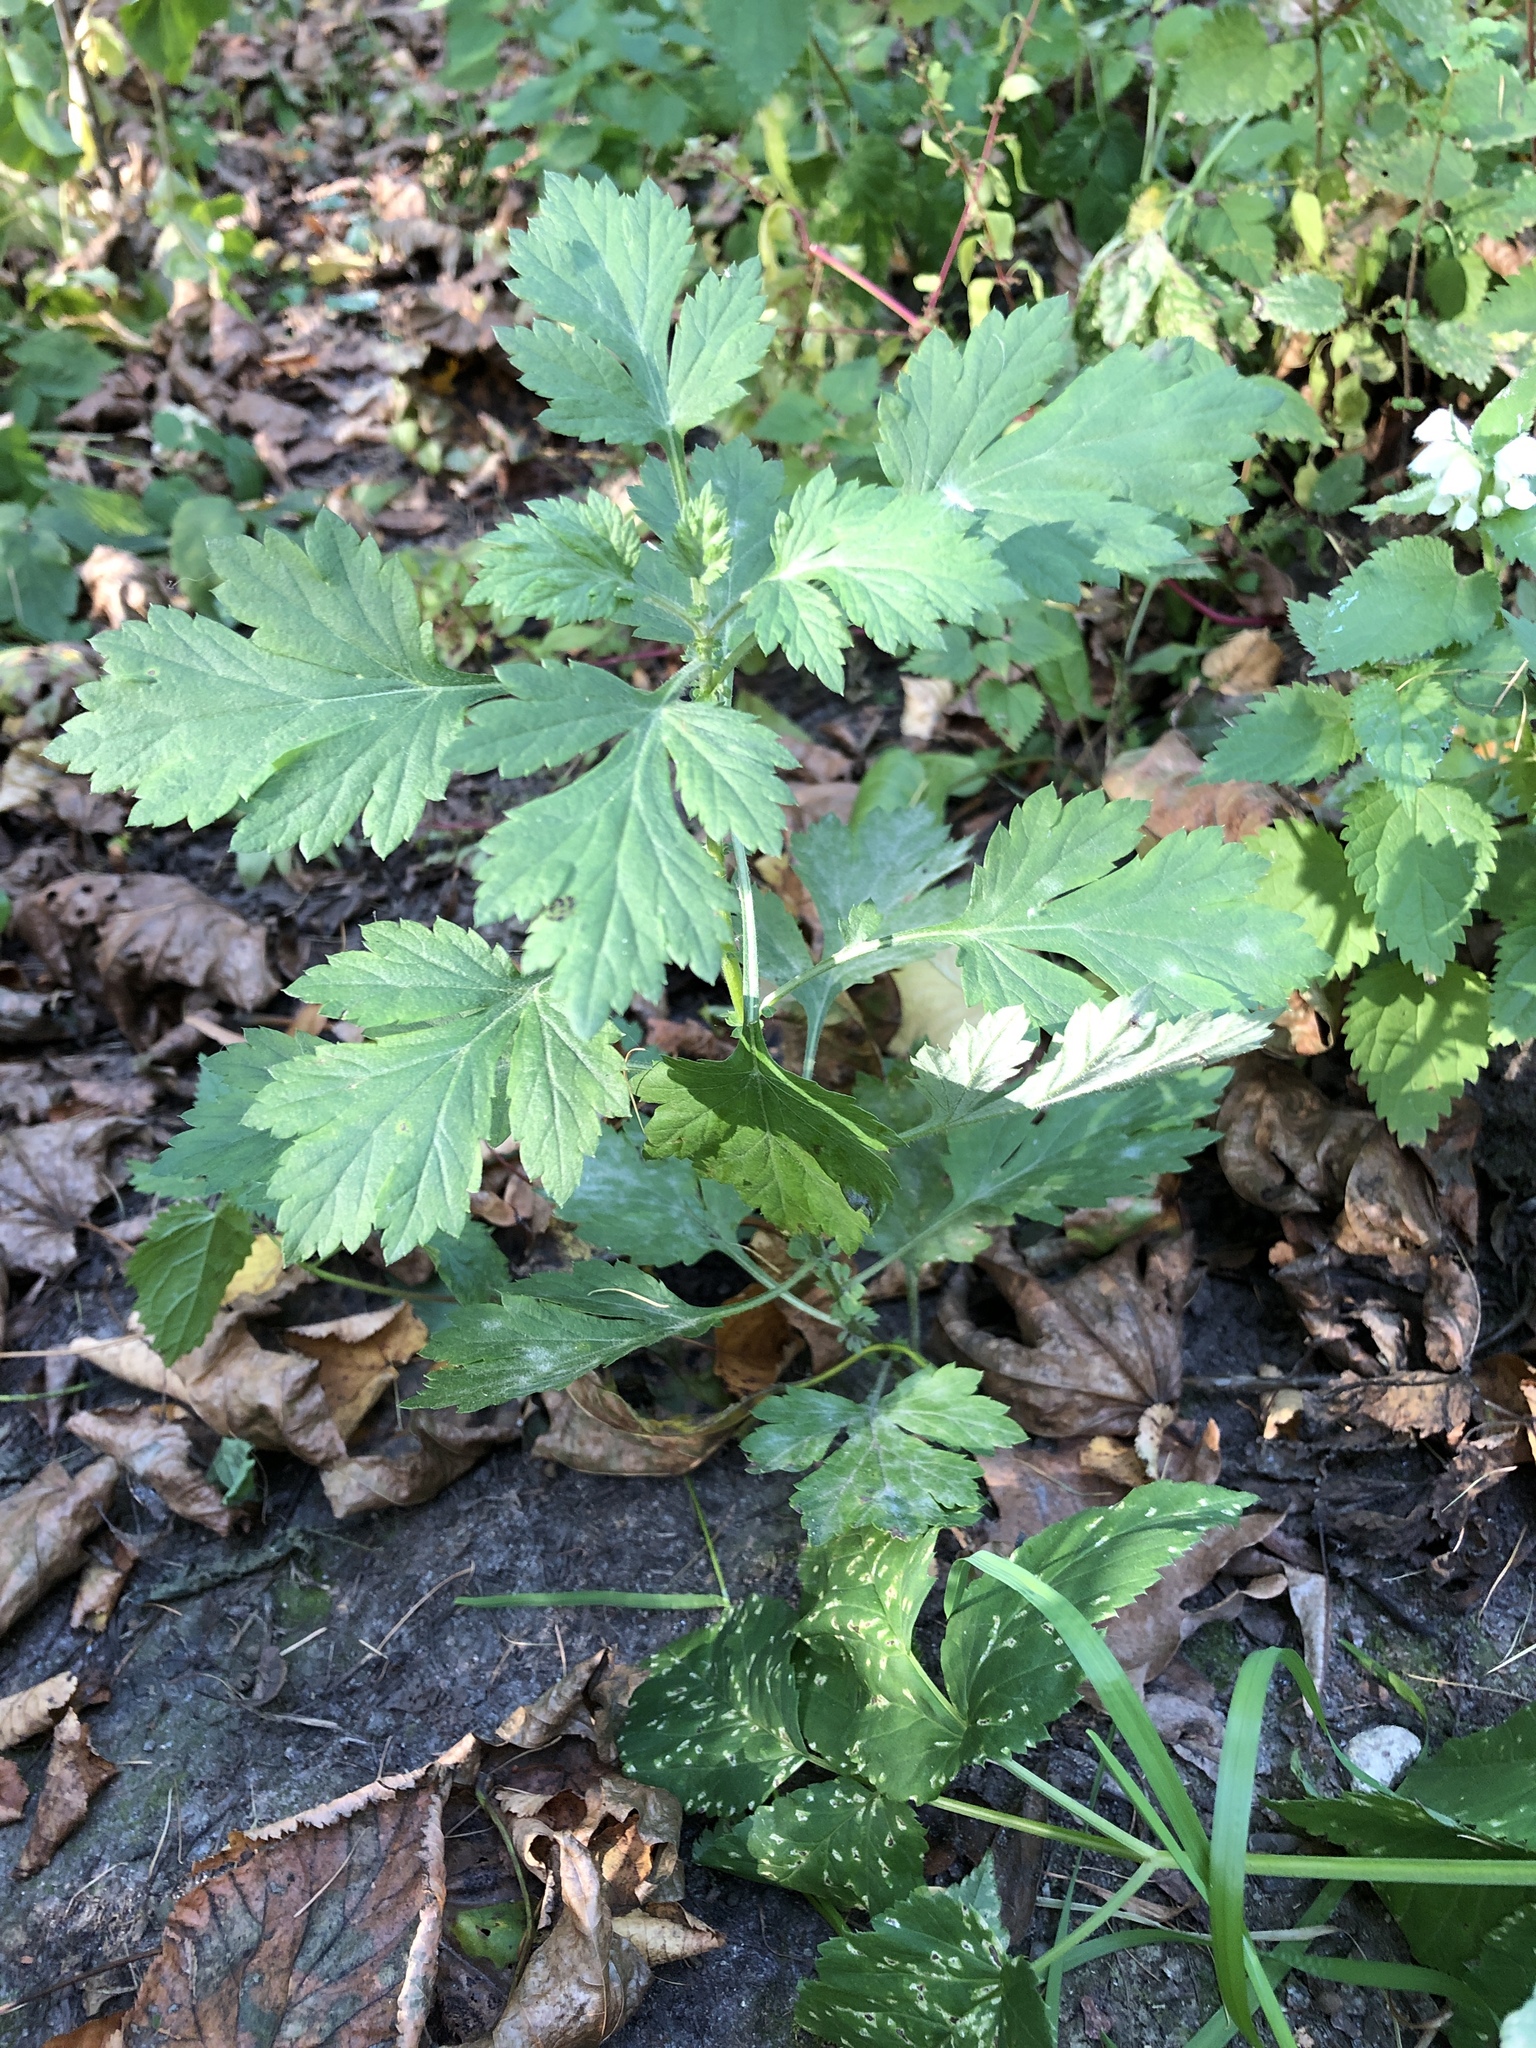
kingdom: Plantae
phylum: Tracheophyta
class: Magnoliopsida
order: Asterales
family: Asteraceae
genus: Artemisia
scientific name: Artemisia vulgaris
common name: Mugwort
